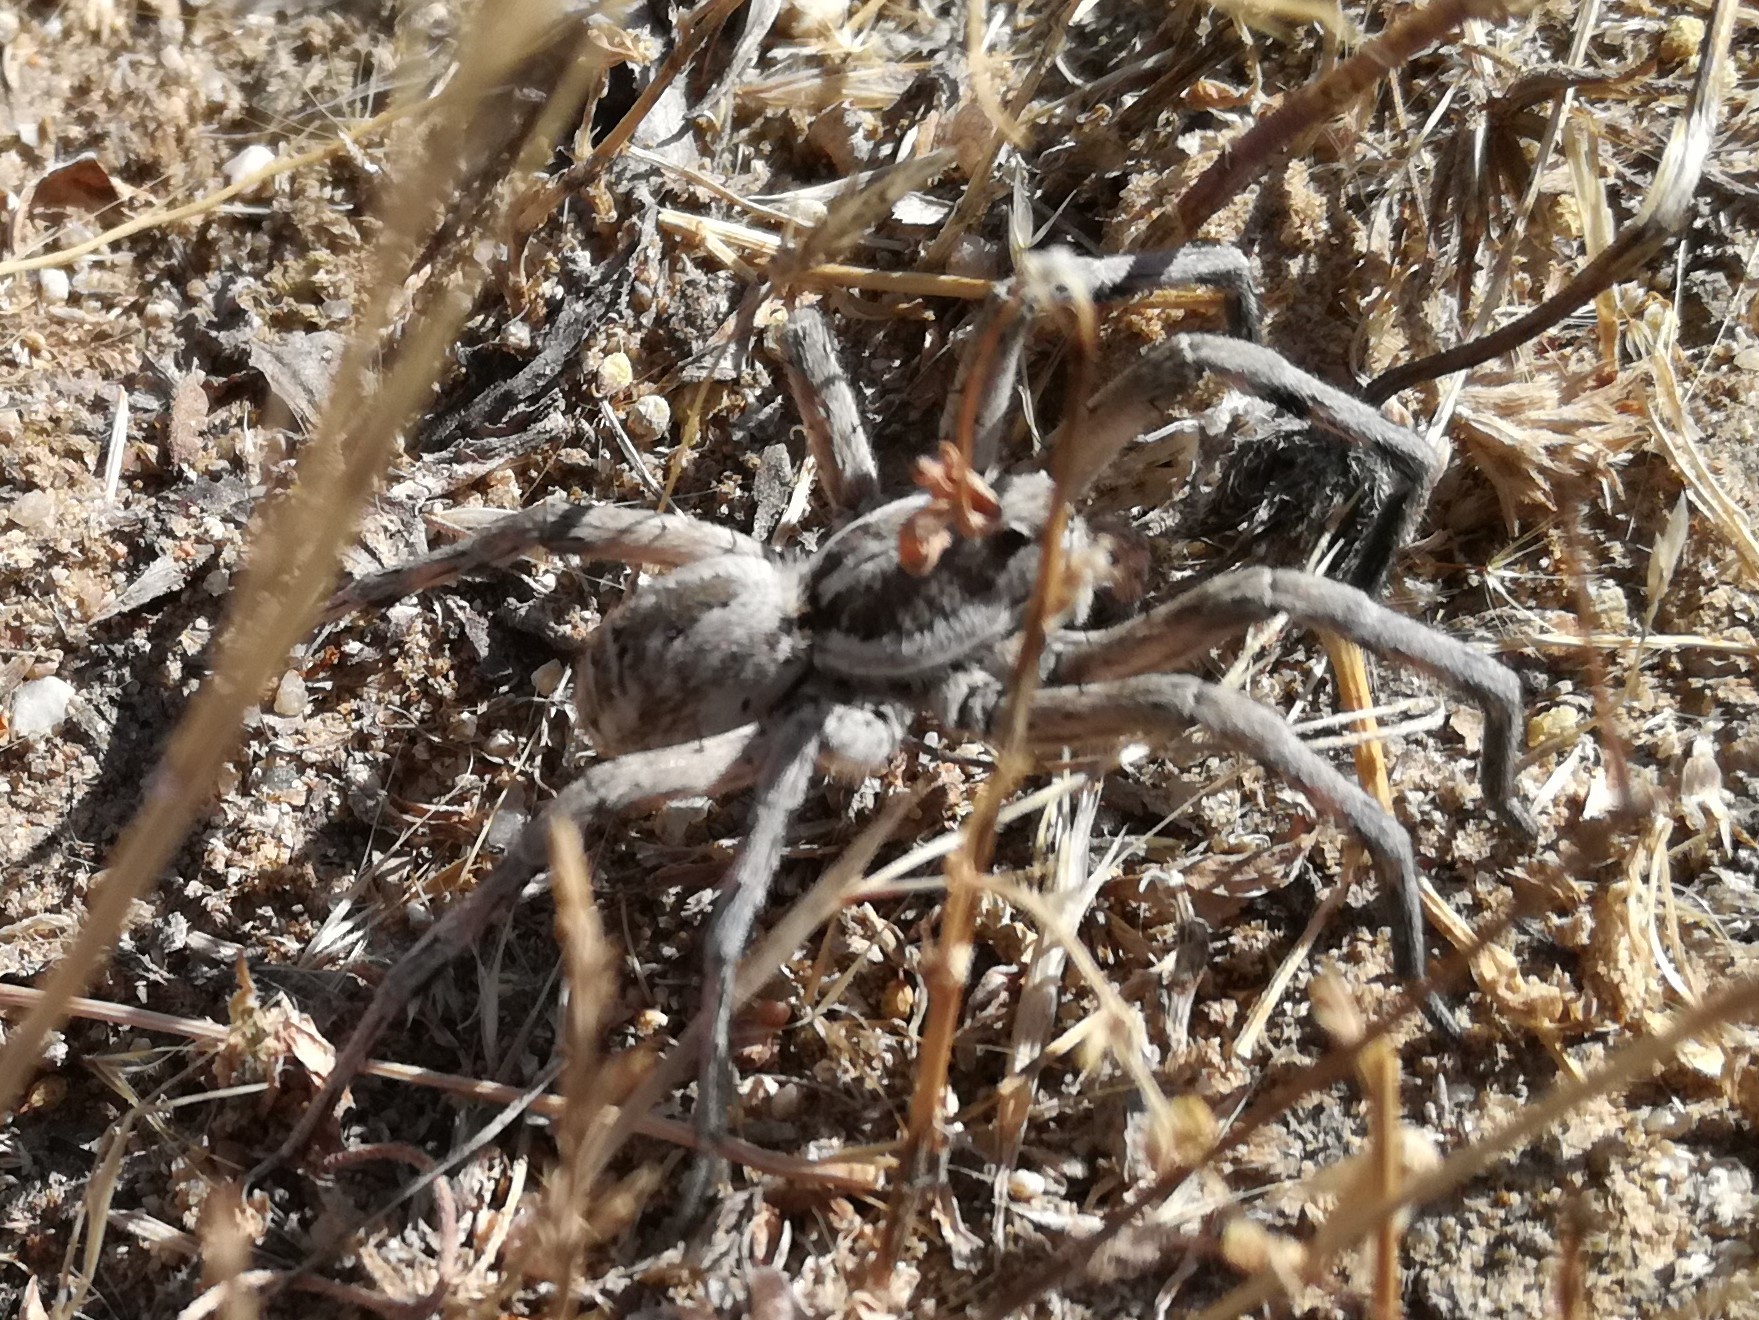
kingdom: Animalia
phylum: Arthropoda
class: Arachnida
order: Araneae
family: Lycosidae
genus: Hogna
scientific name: Hogna radiata
